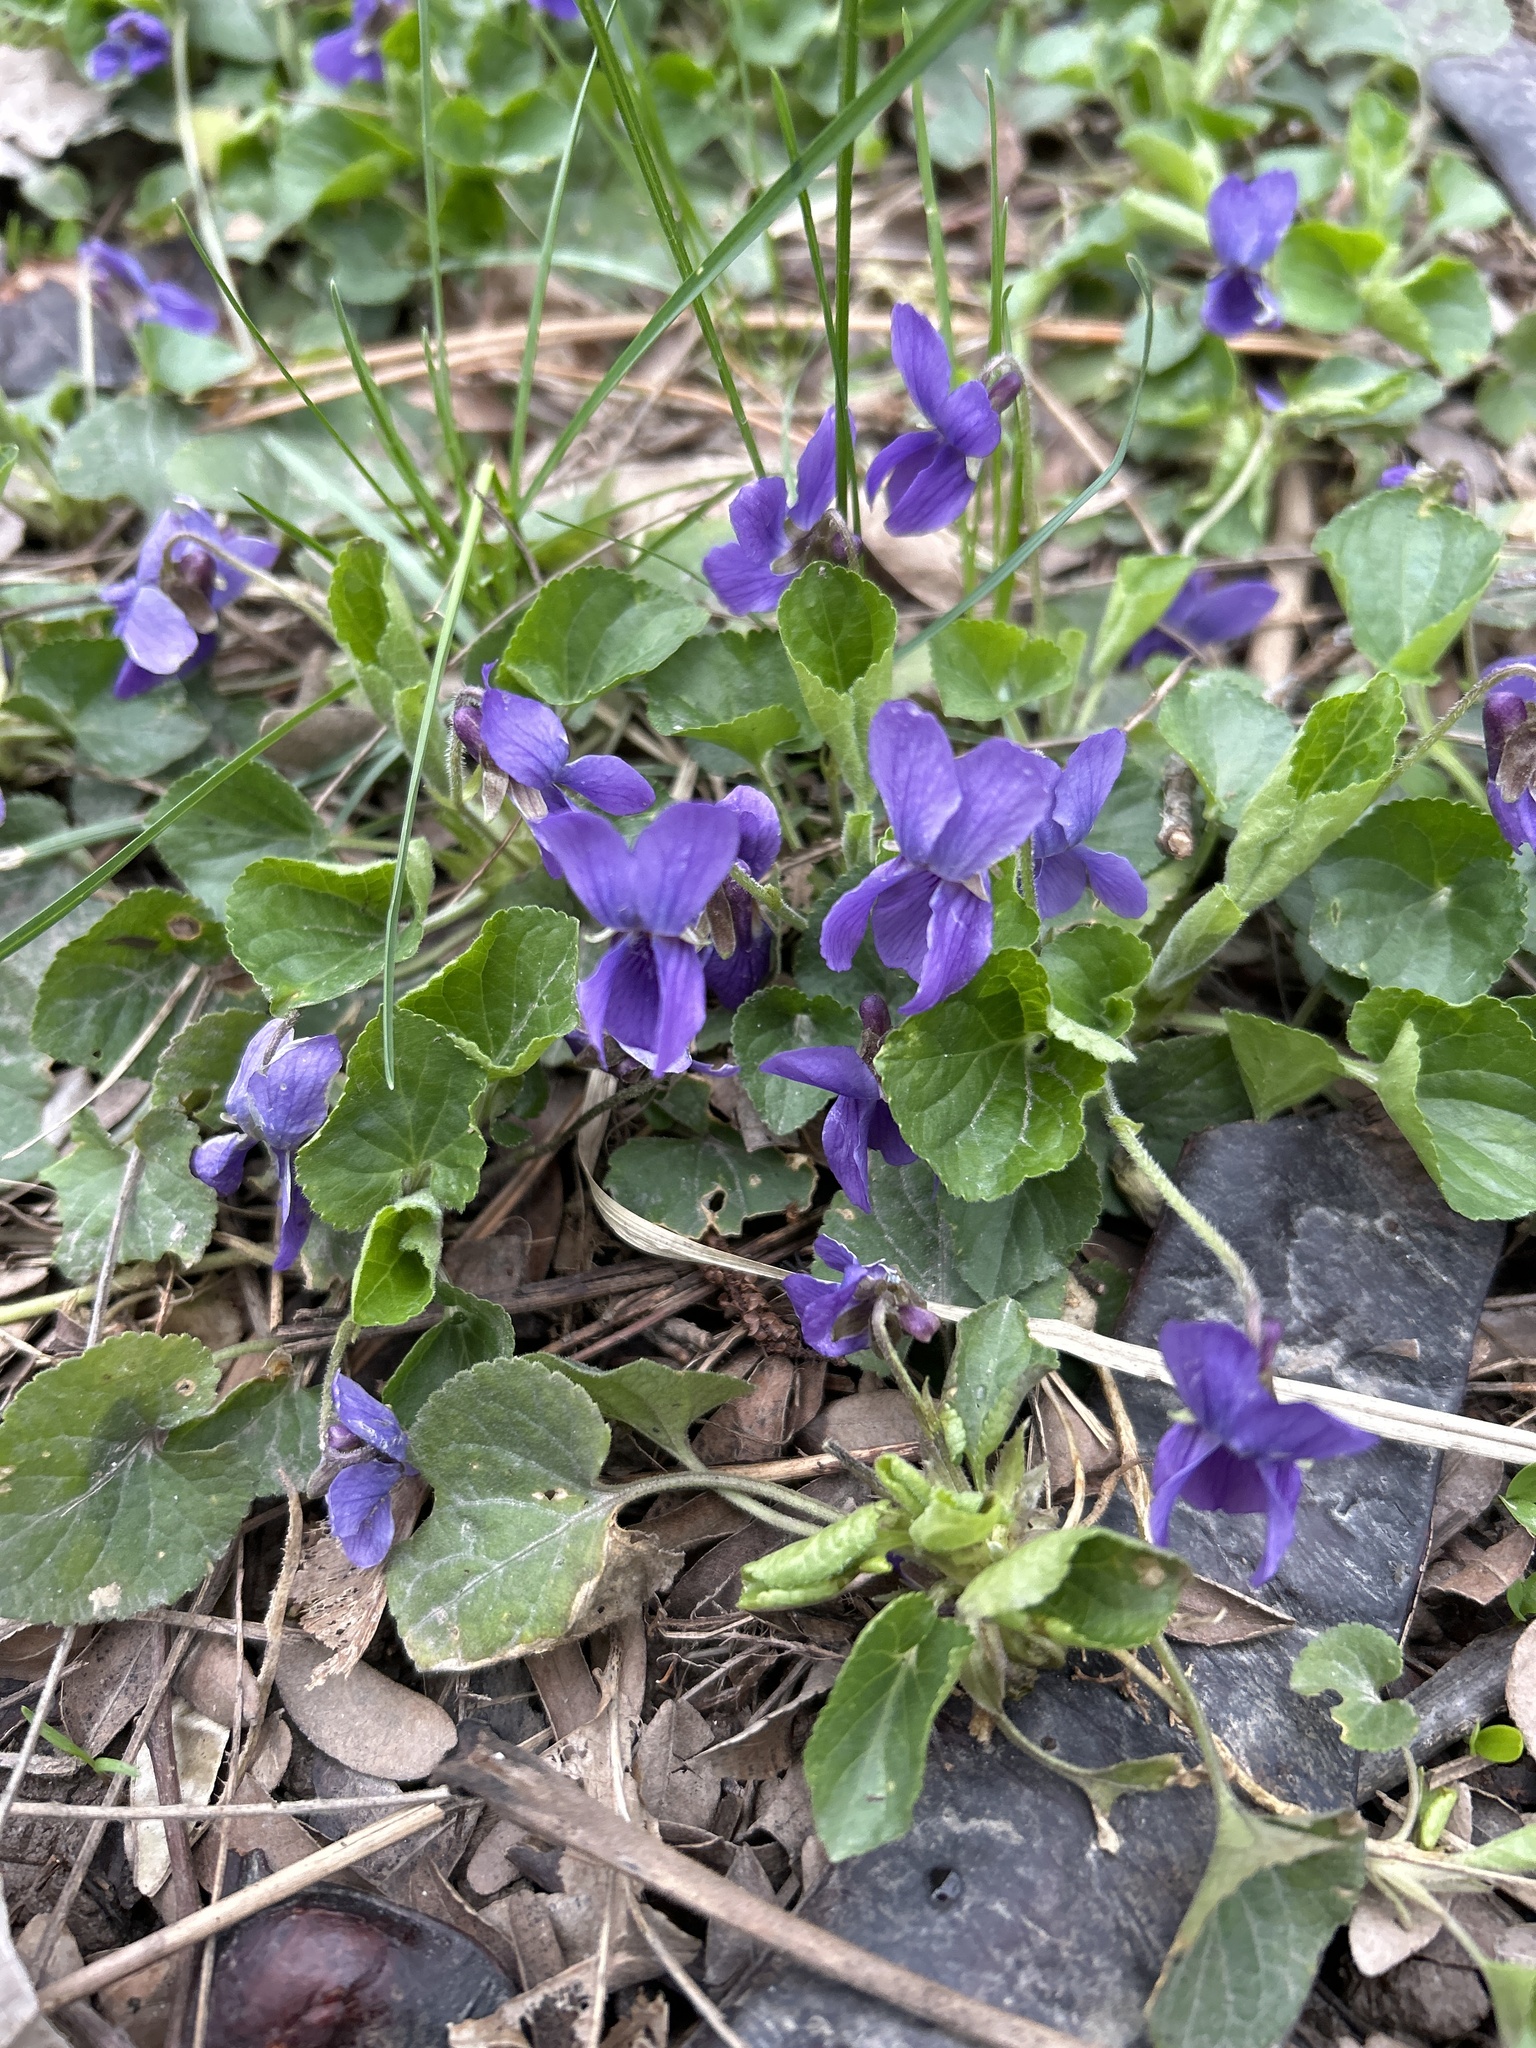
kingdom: Plantae
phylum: Tracheophyta
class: Magnoliopsida
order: Malpighiales
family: Violaceae
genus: Viola
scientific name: Viola odorata
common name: Sweet violet
